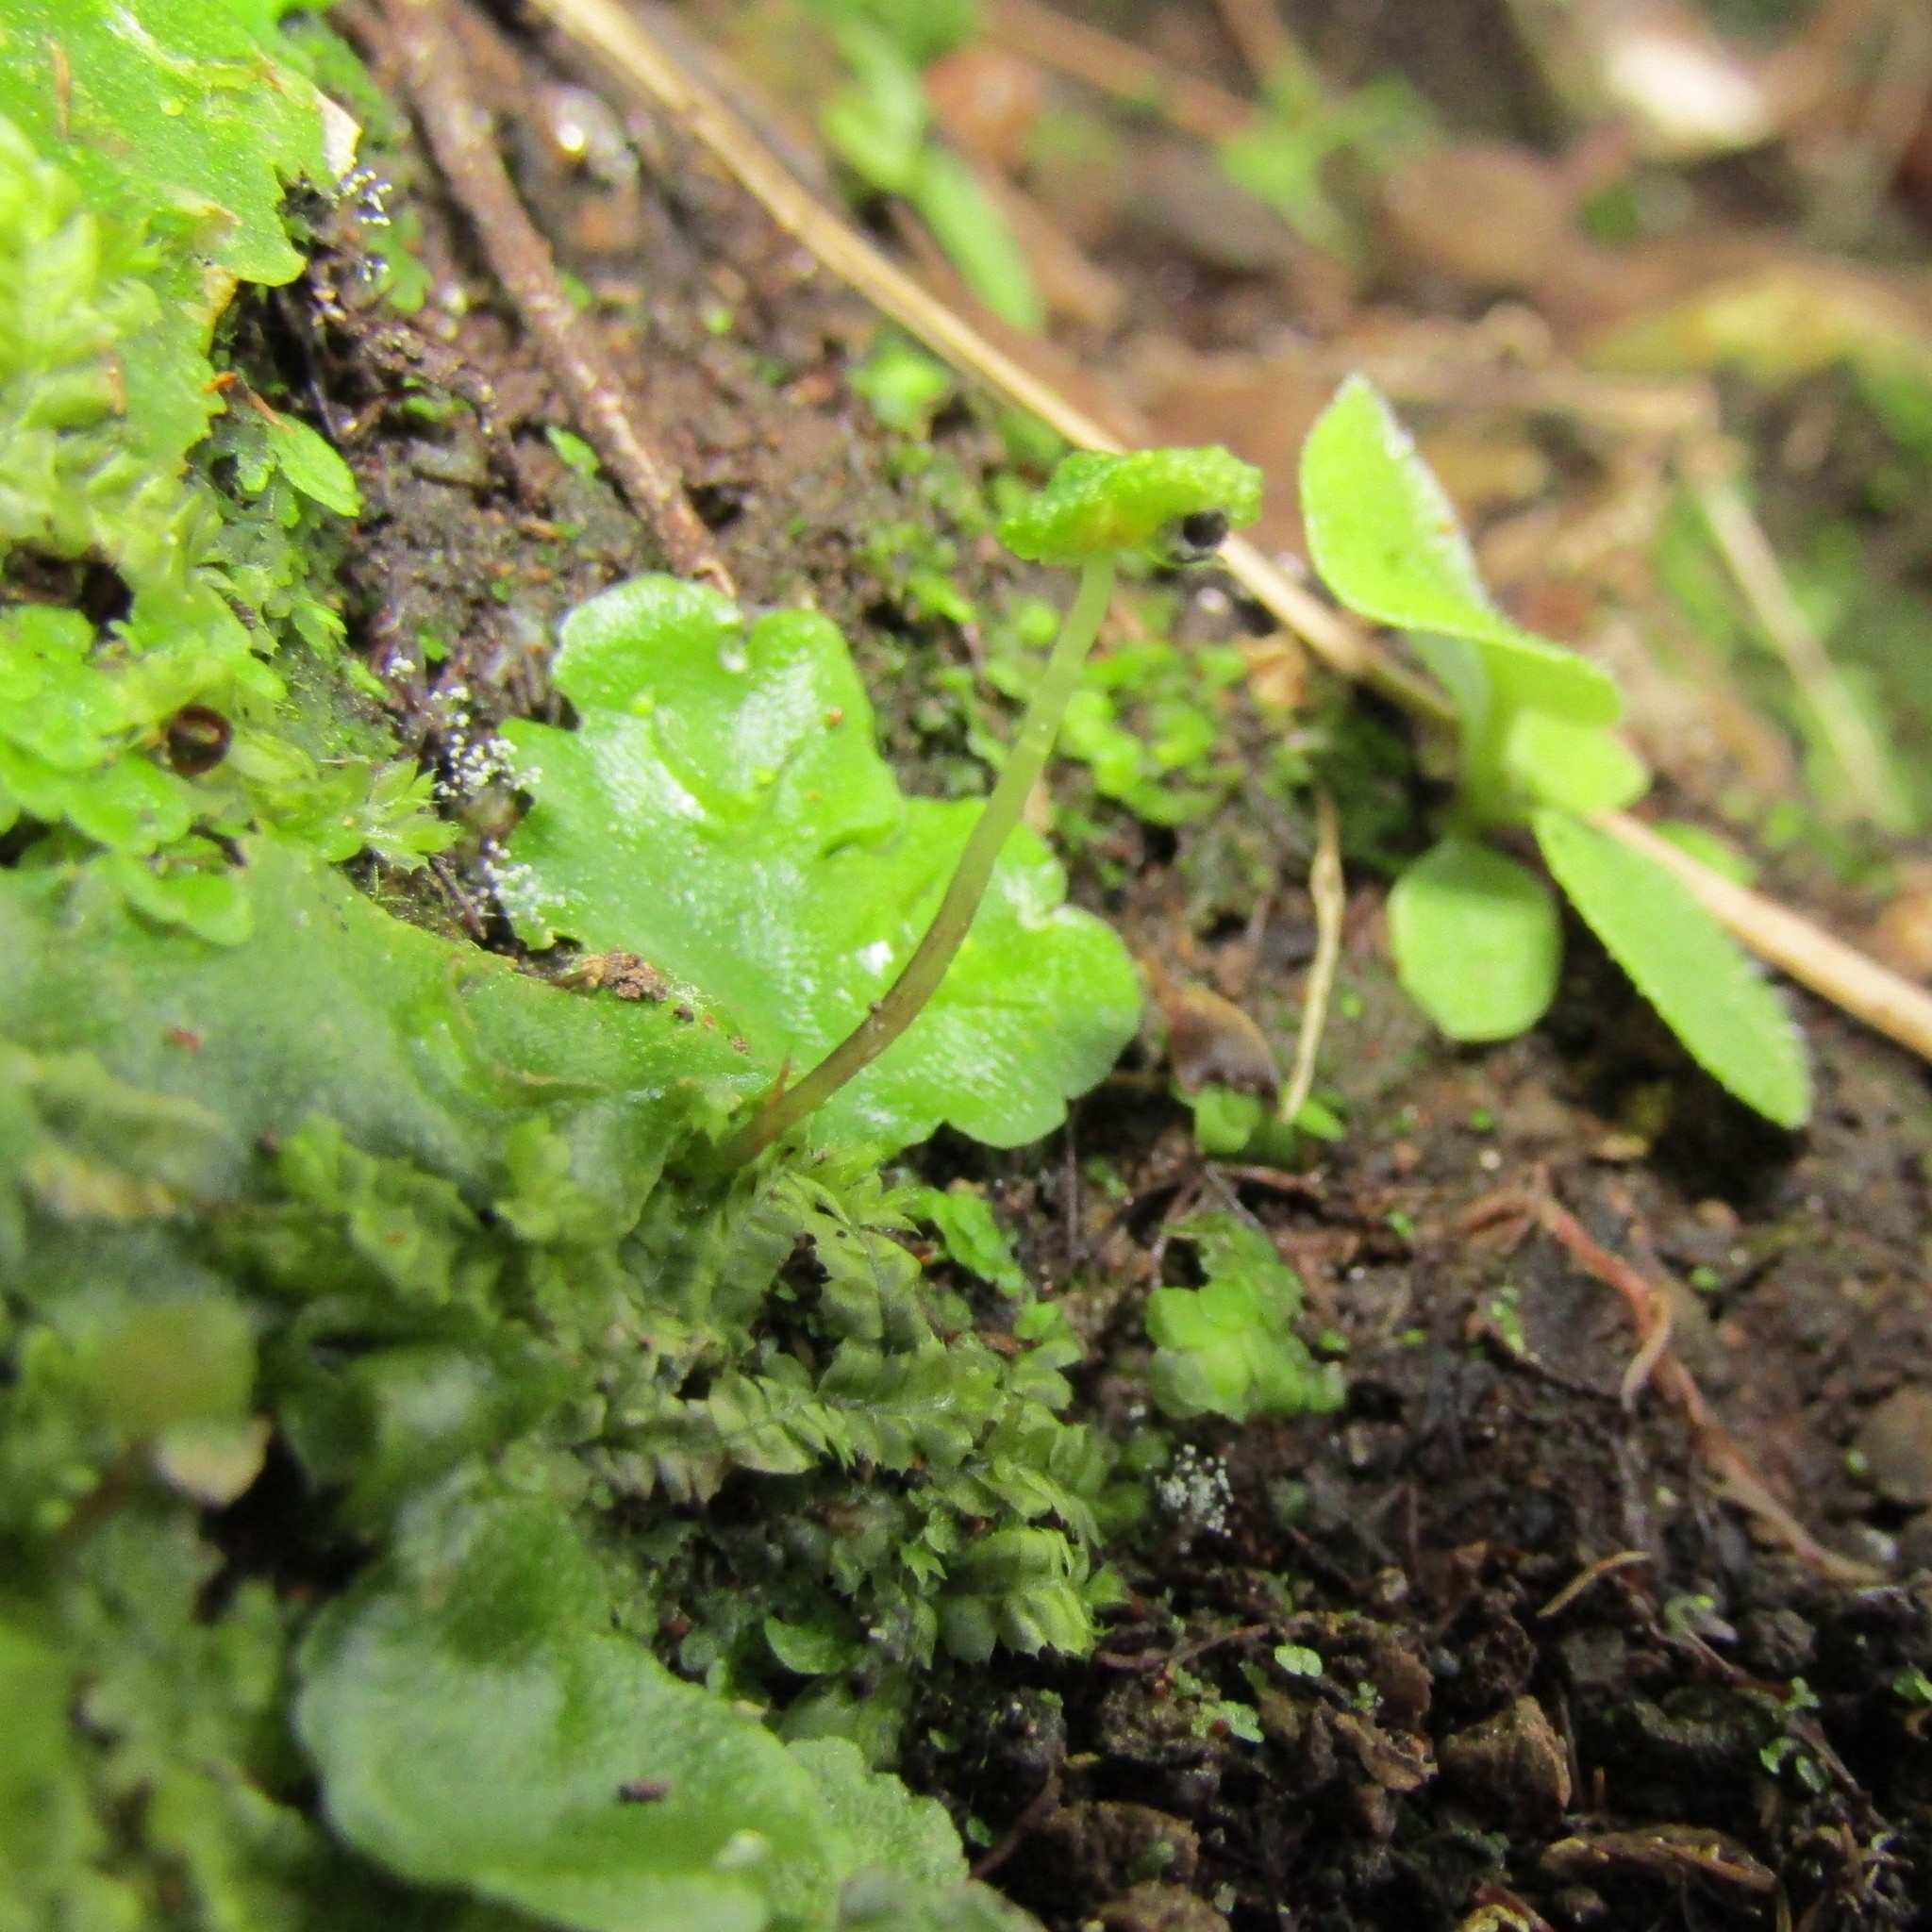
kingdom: Plantae
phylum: Marchantiophyta
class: Marchantiopsida
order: Lunulariales
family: Lunulariaceae
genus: Lunularia
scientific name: Lunularia cruciata
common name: Crescent-cup liverwort
